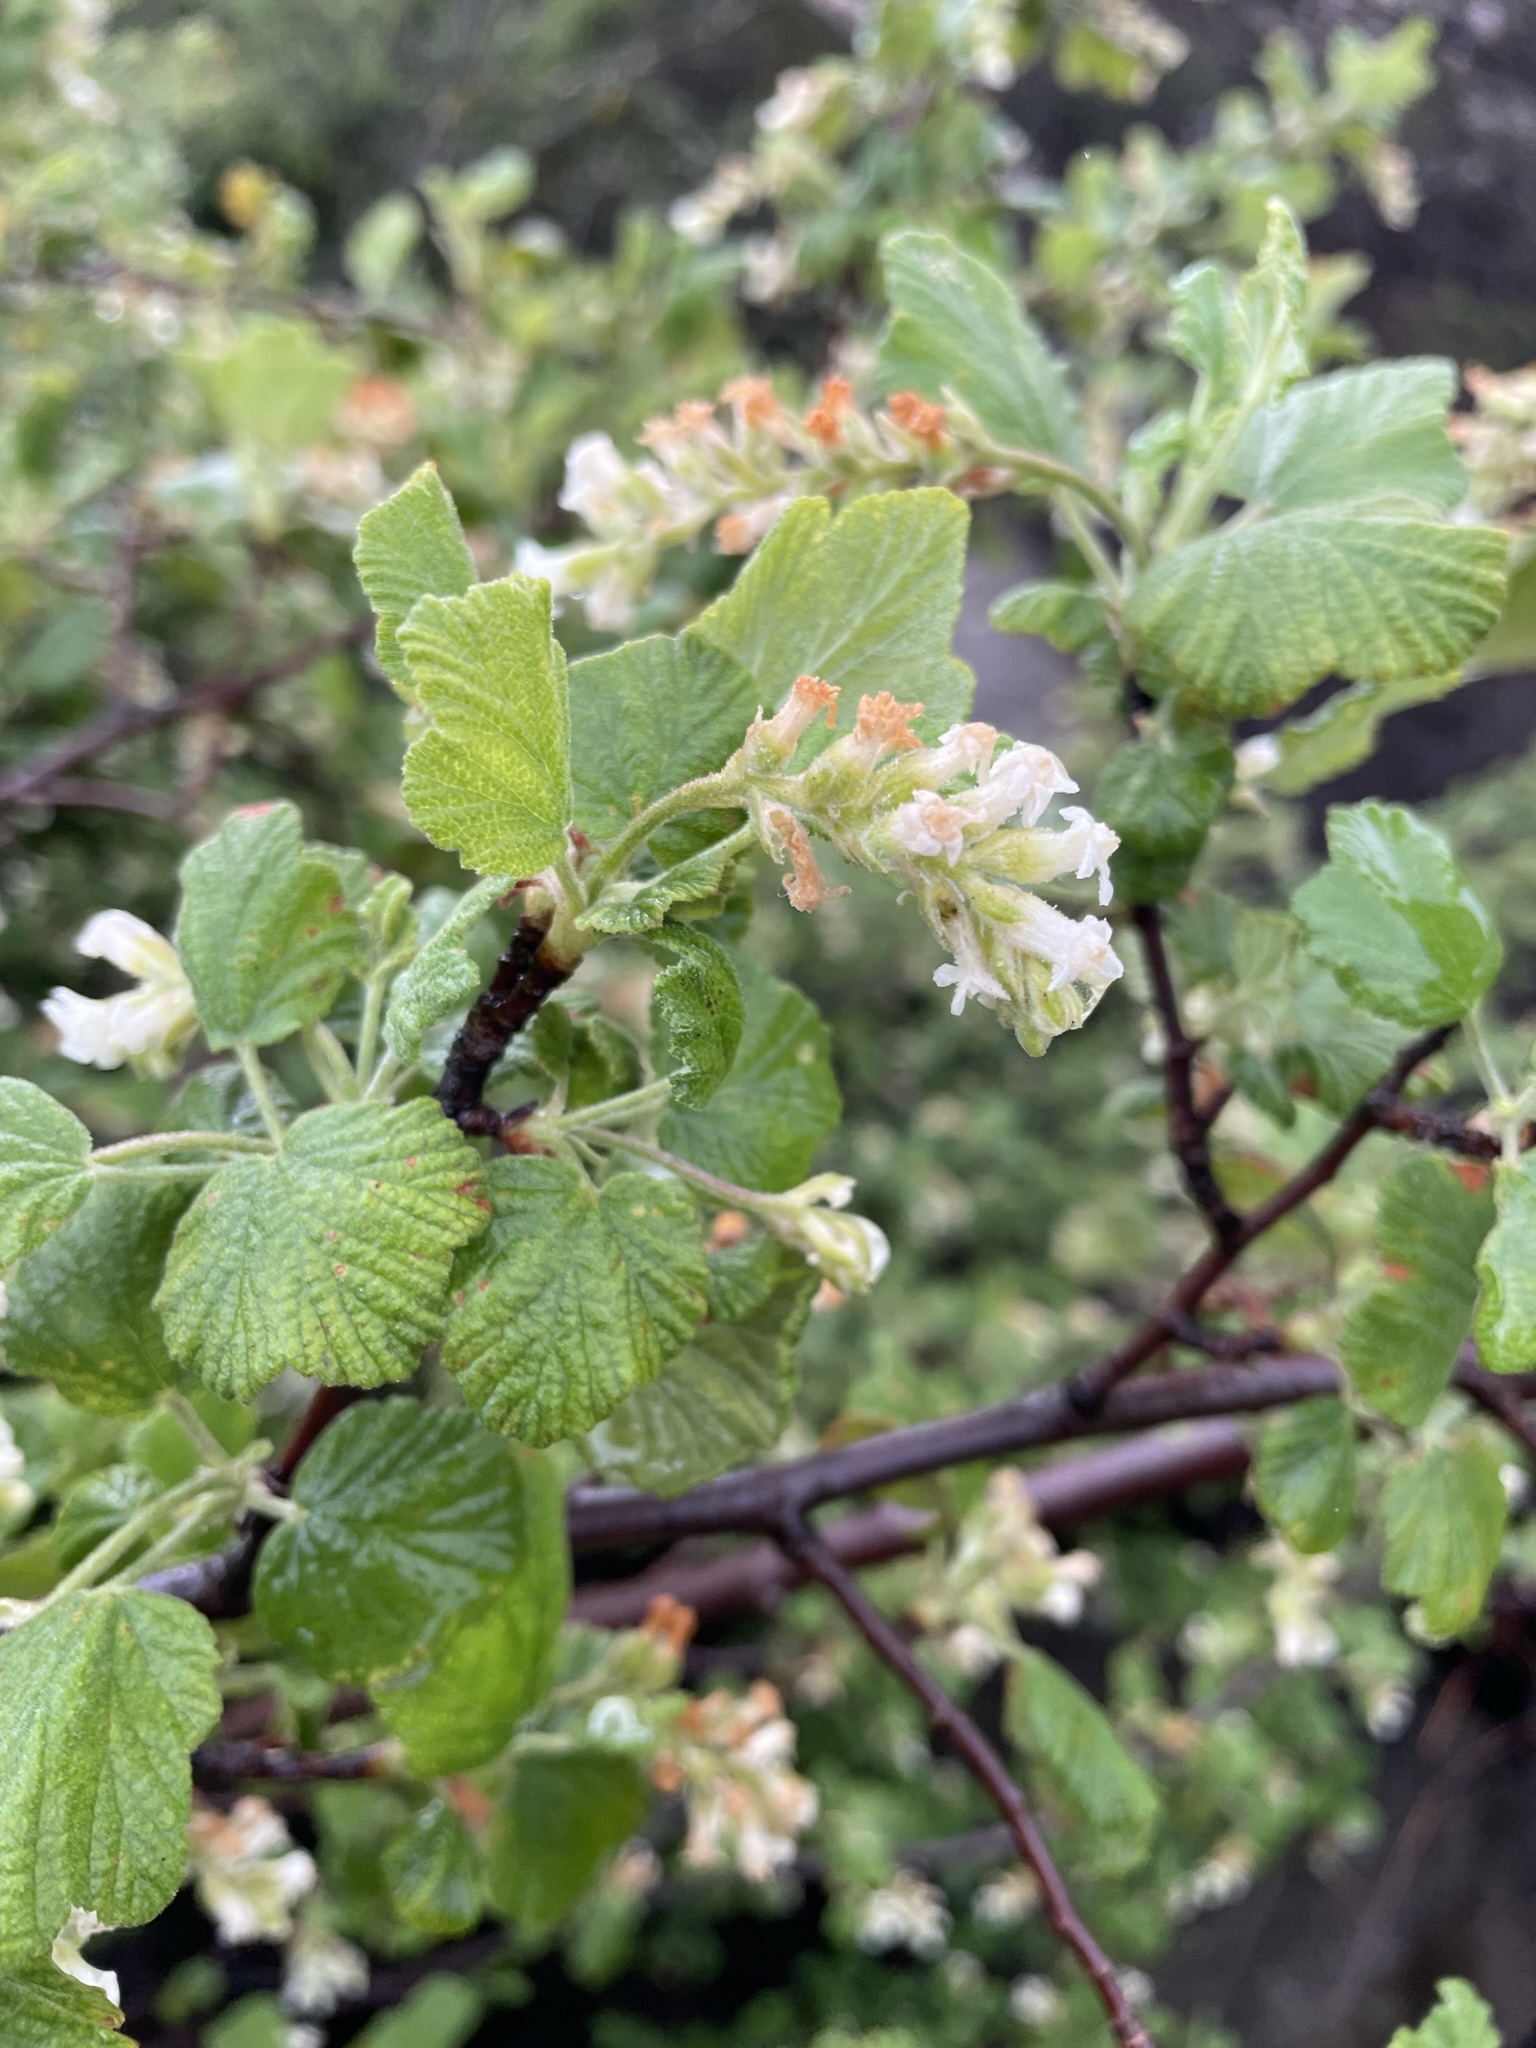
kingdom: Plantae
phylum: Tracheophyta
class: Magnoliopsida
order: Saxifragales
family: Grossulariaceae
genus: Ribes
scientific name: Ribes indecorum
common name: White-flower currant
